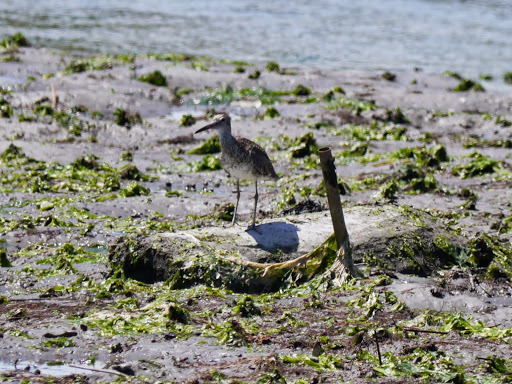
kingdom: Animalia
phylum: Chordata
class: Aves
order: Charadriiformes
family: Scolopacidae
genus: Tringa
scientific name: Tringa semipalmata
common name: Willet
